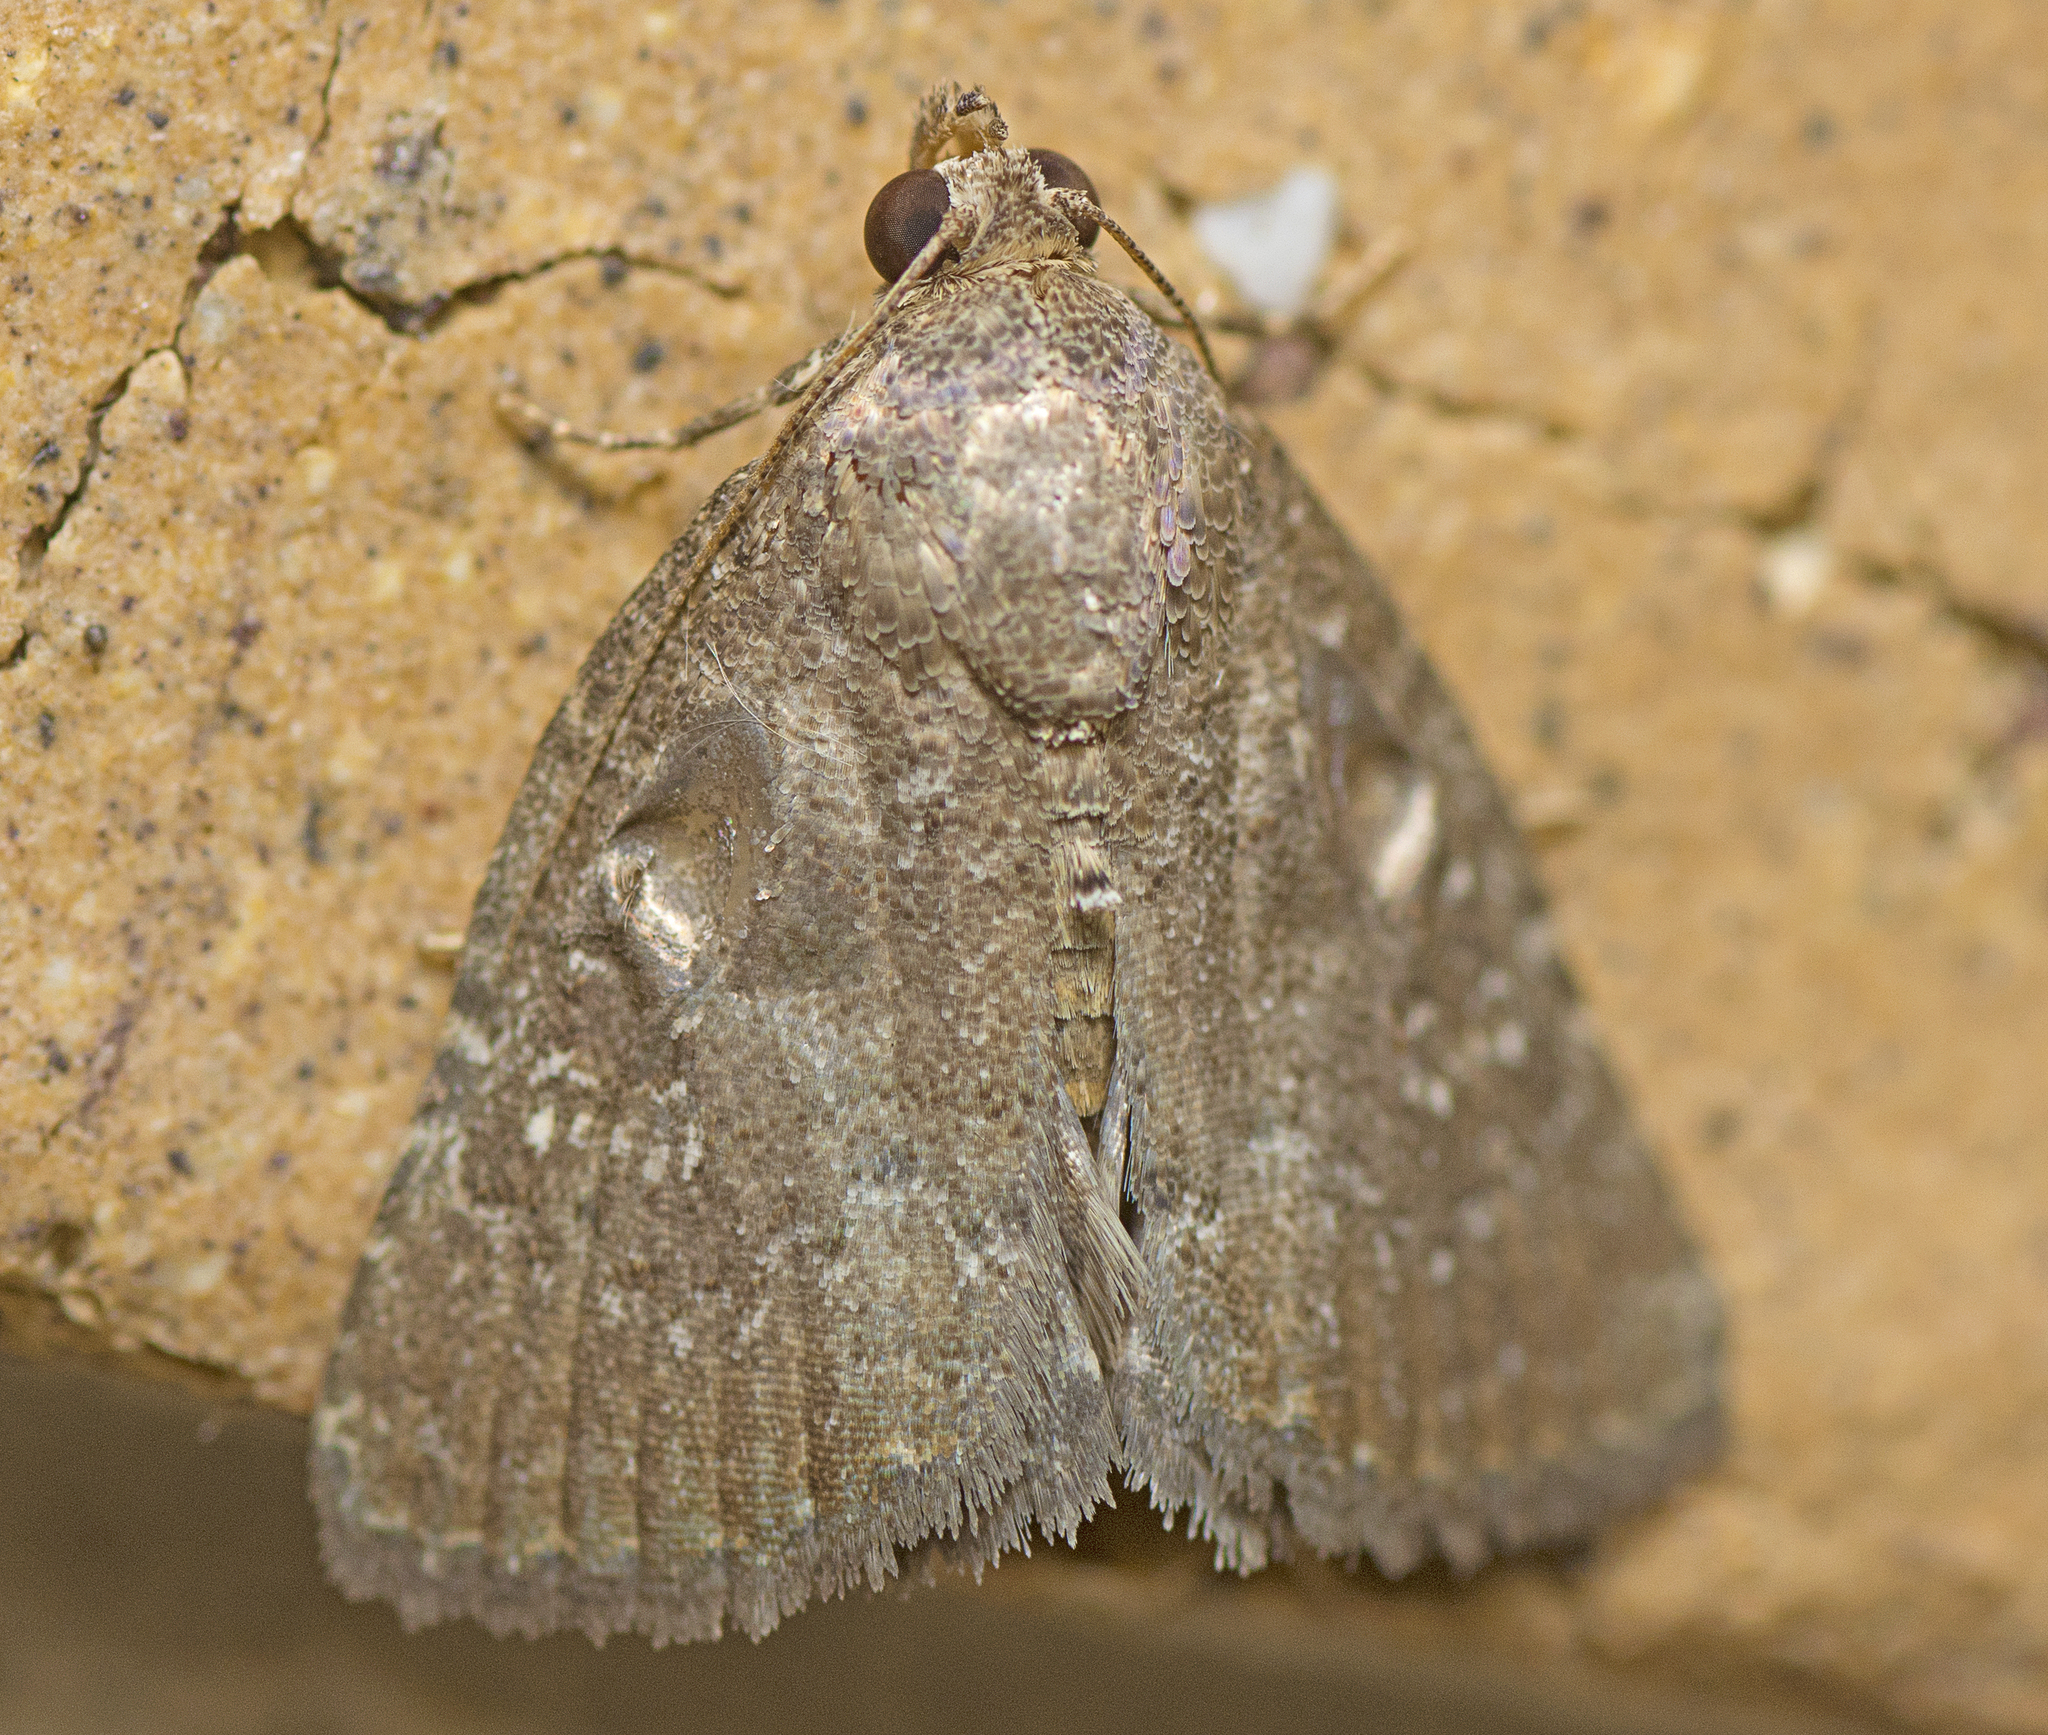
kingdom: Animalia
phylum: Arthropoda
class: Insecta
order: Lepidoptera
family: Noctuidae
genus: Amyna
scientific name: Amyna natalis
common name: Iiima moth
